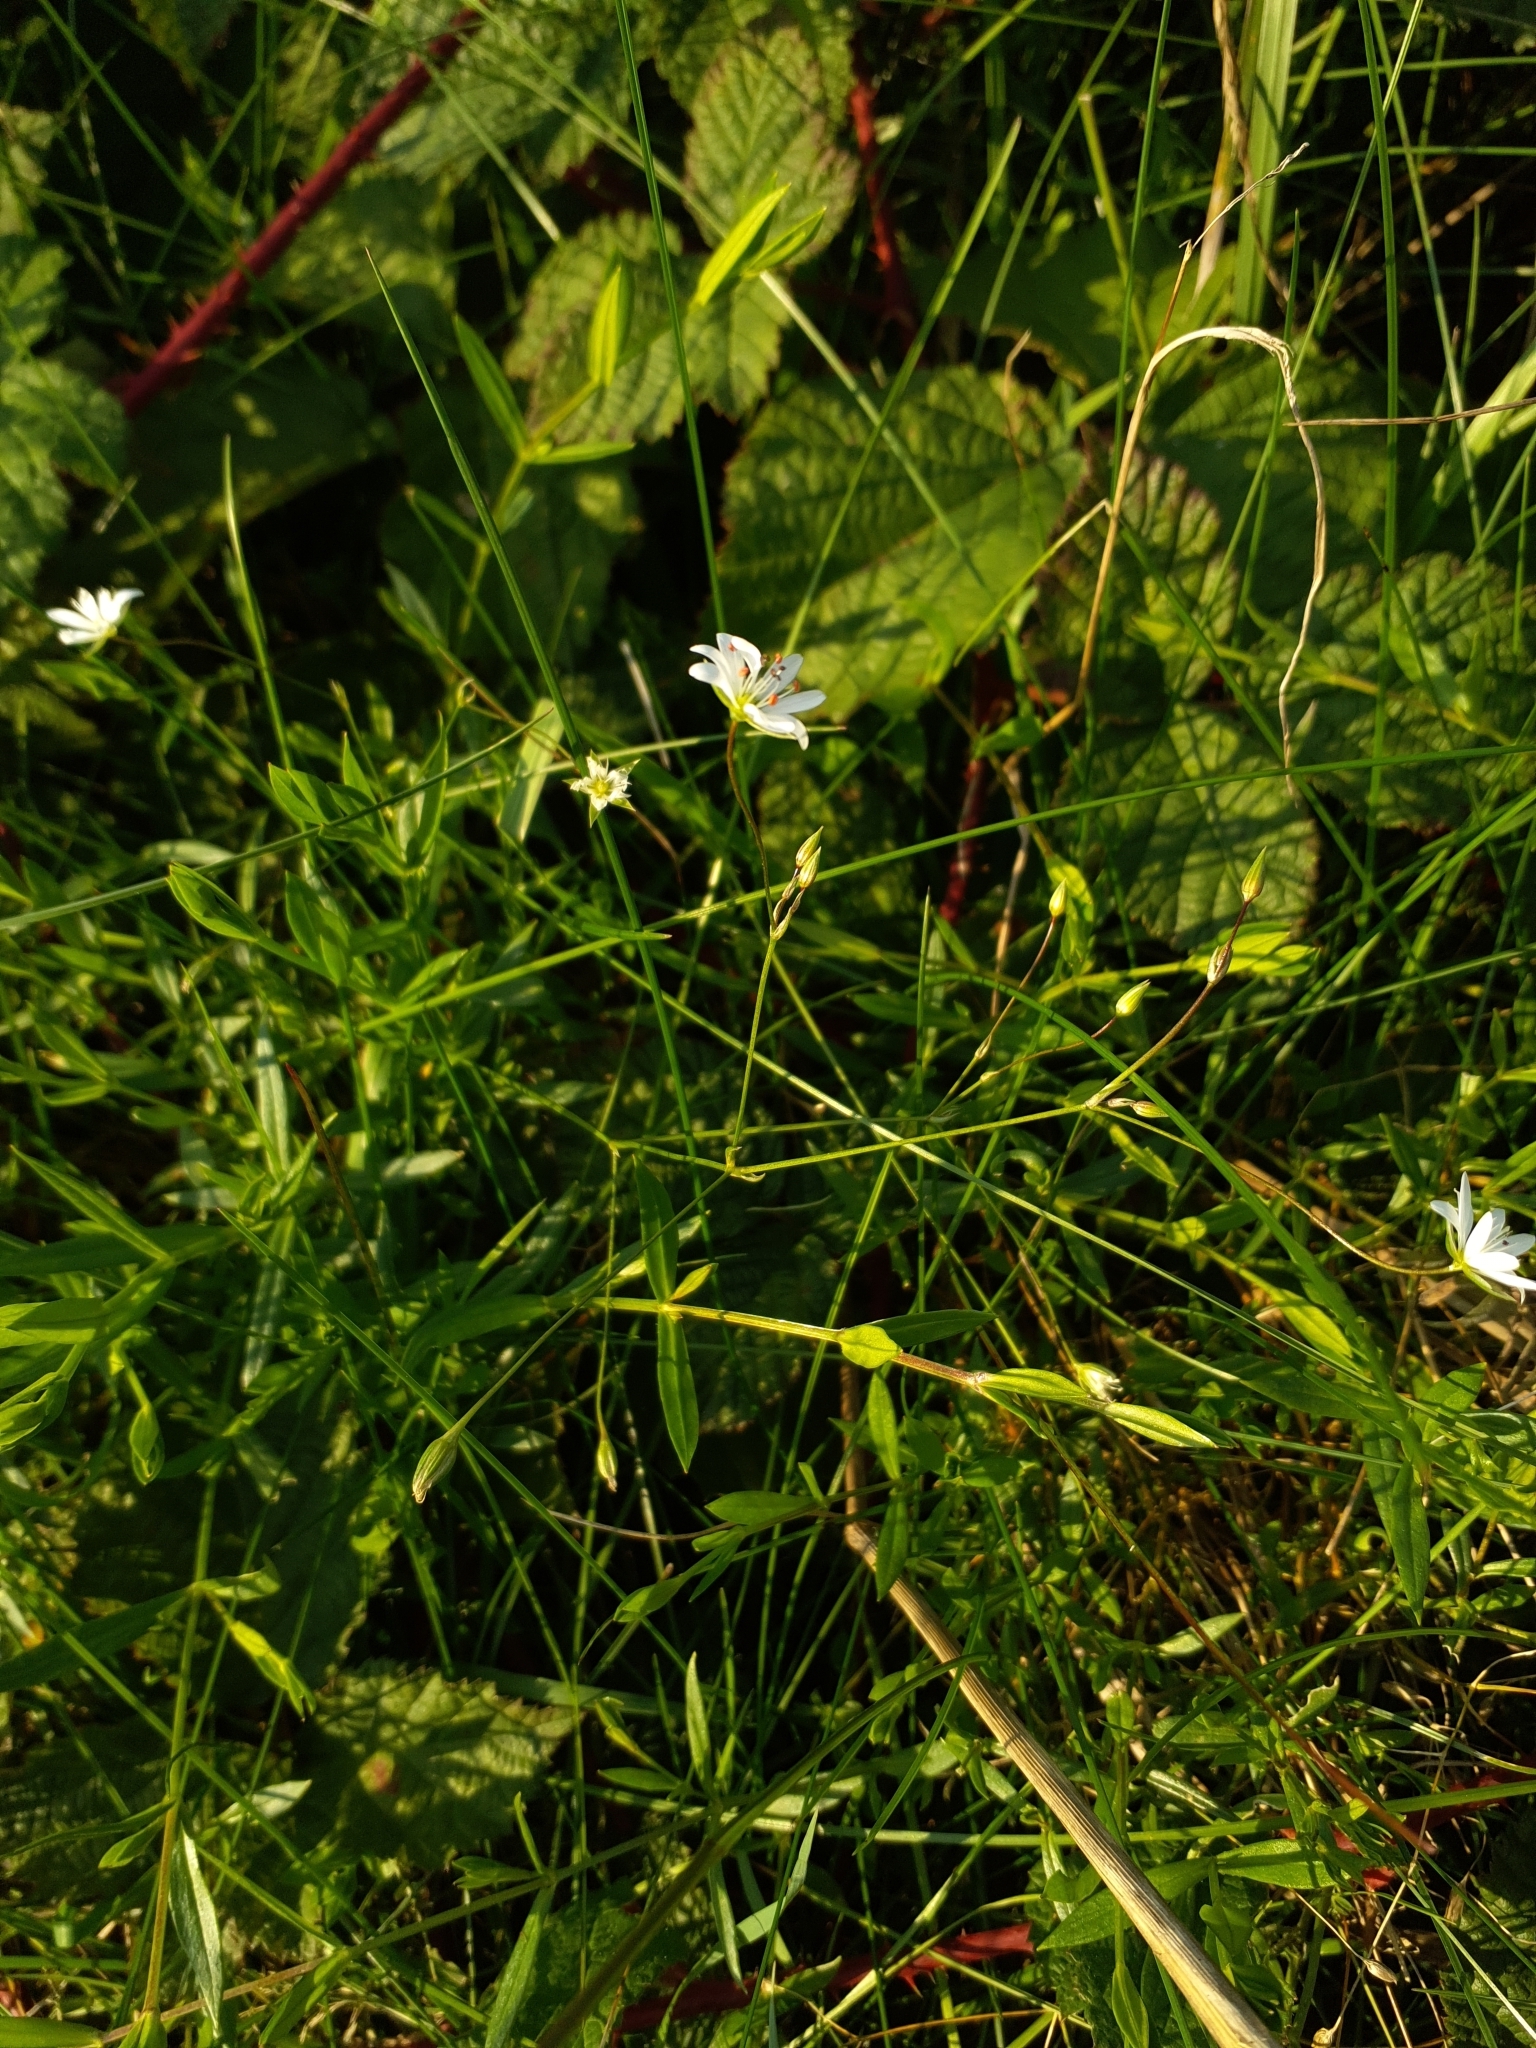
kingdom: Plantae
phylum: Tracheophyta
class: Magnoliopsida
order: Caryophyllales
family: Caryophyllaceae
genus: Stellaria
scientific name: Stellaria graminea
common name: Grass-like starwort
